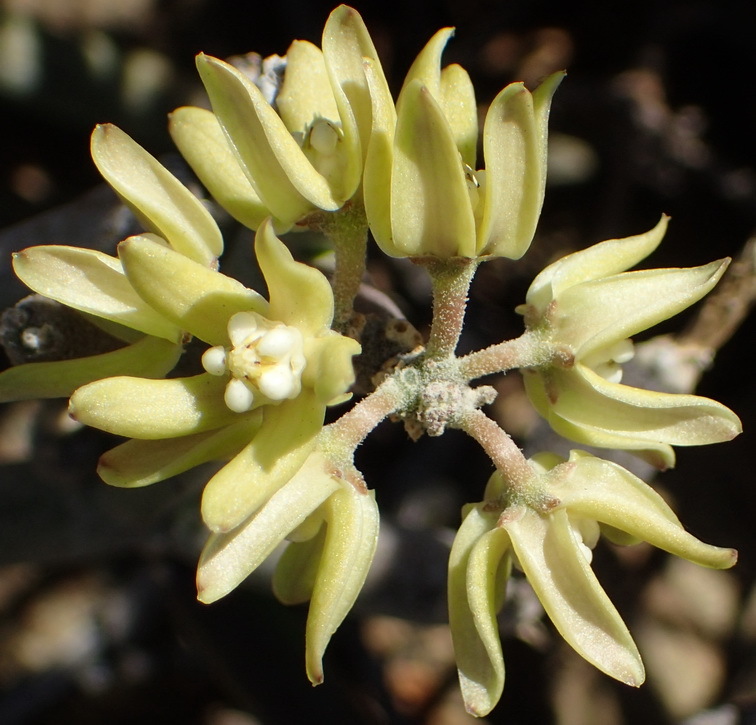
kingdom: Plantae
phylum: Tracheophyta
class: Magnoliopsida
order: Gentianales
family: Apocynaceae
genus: Cynanchum
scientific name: Cynanchum viminale
